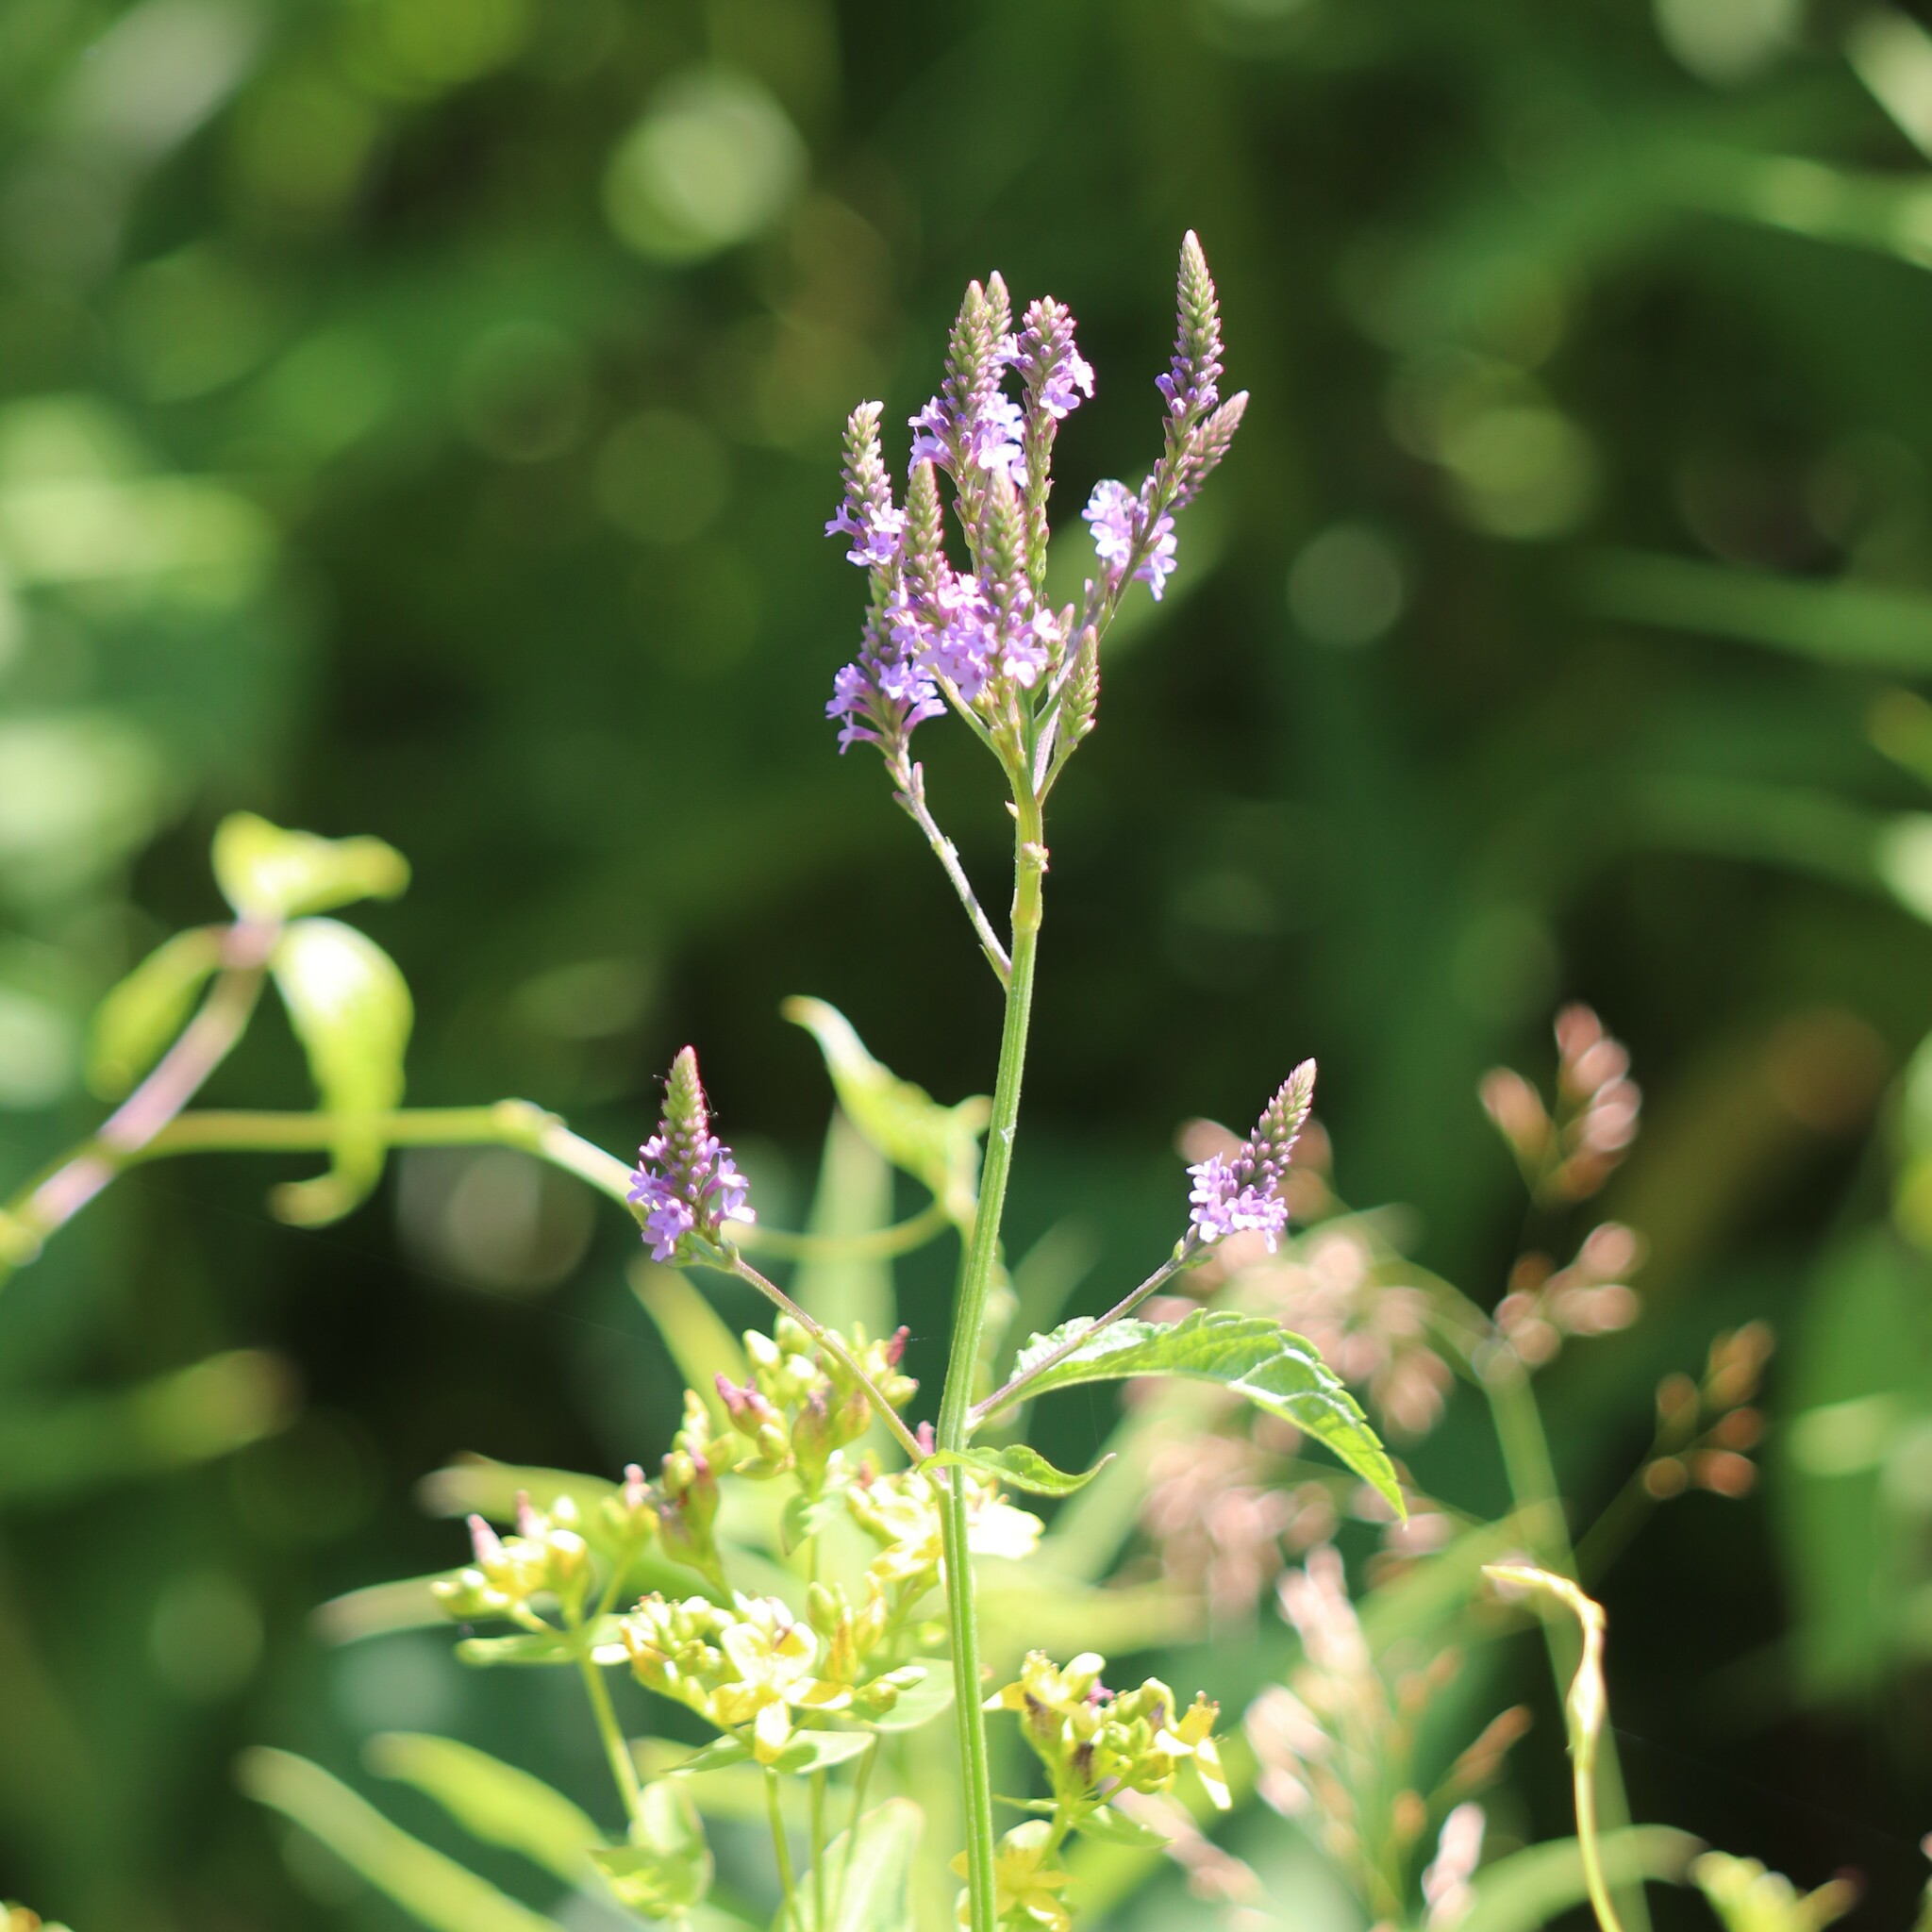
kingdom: Plantae
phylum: Tracheophyta
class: Magnoliopsida
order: Lamiales
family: Verbenaceae
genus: Verbena
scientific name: Verbena hastata
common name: American blue vervain
